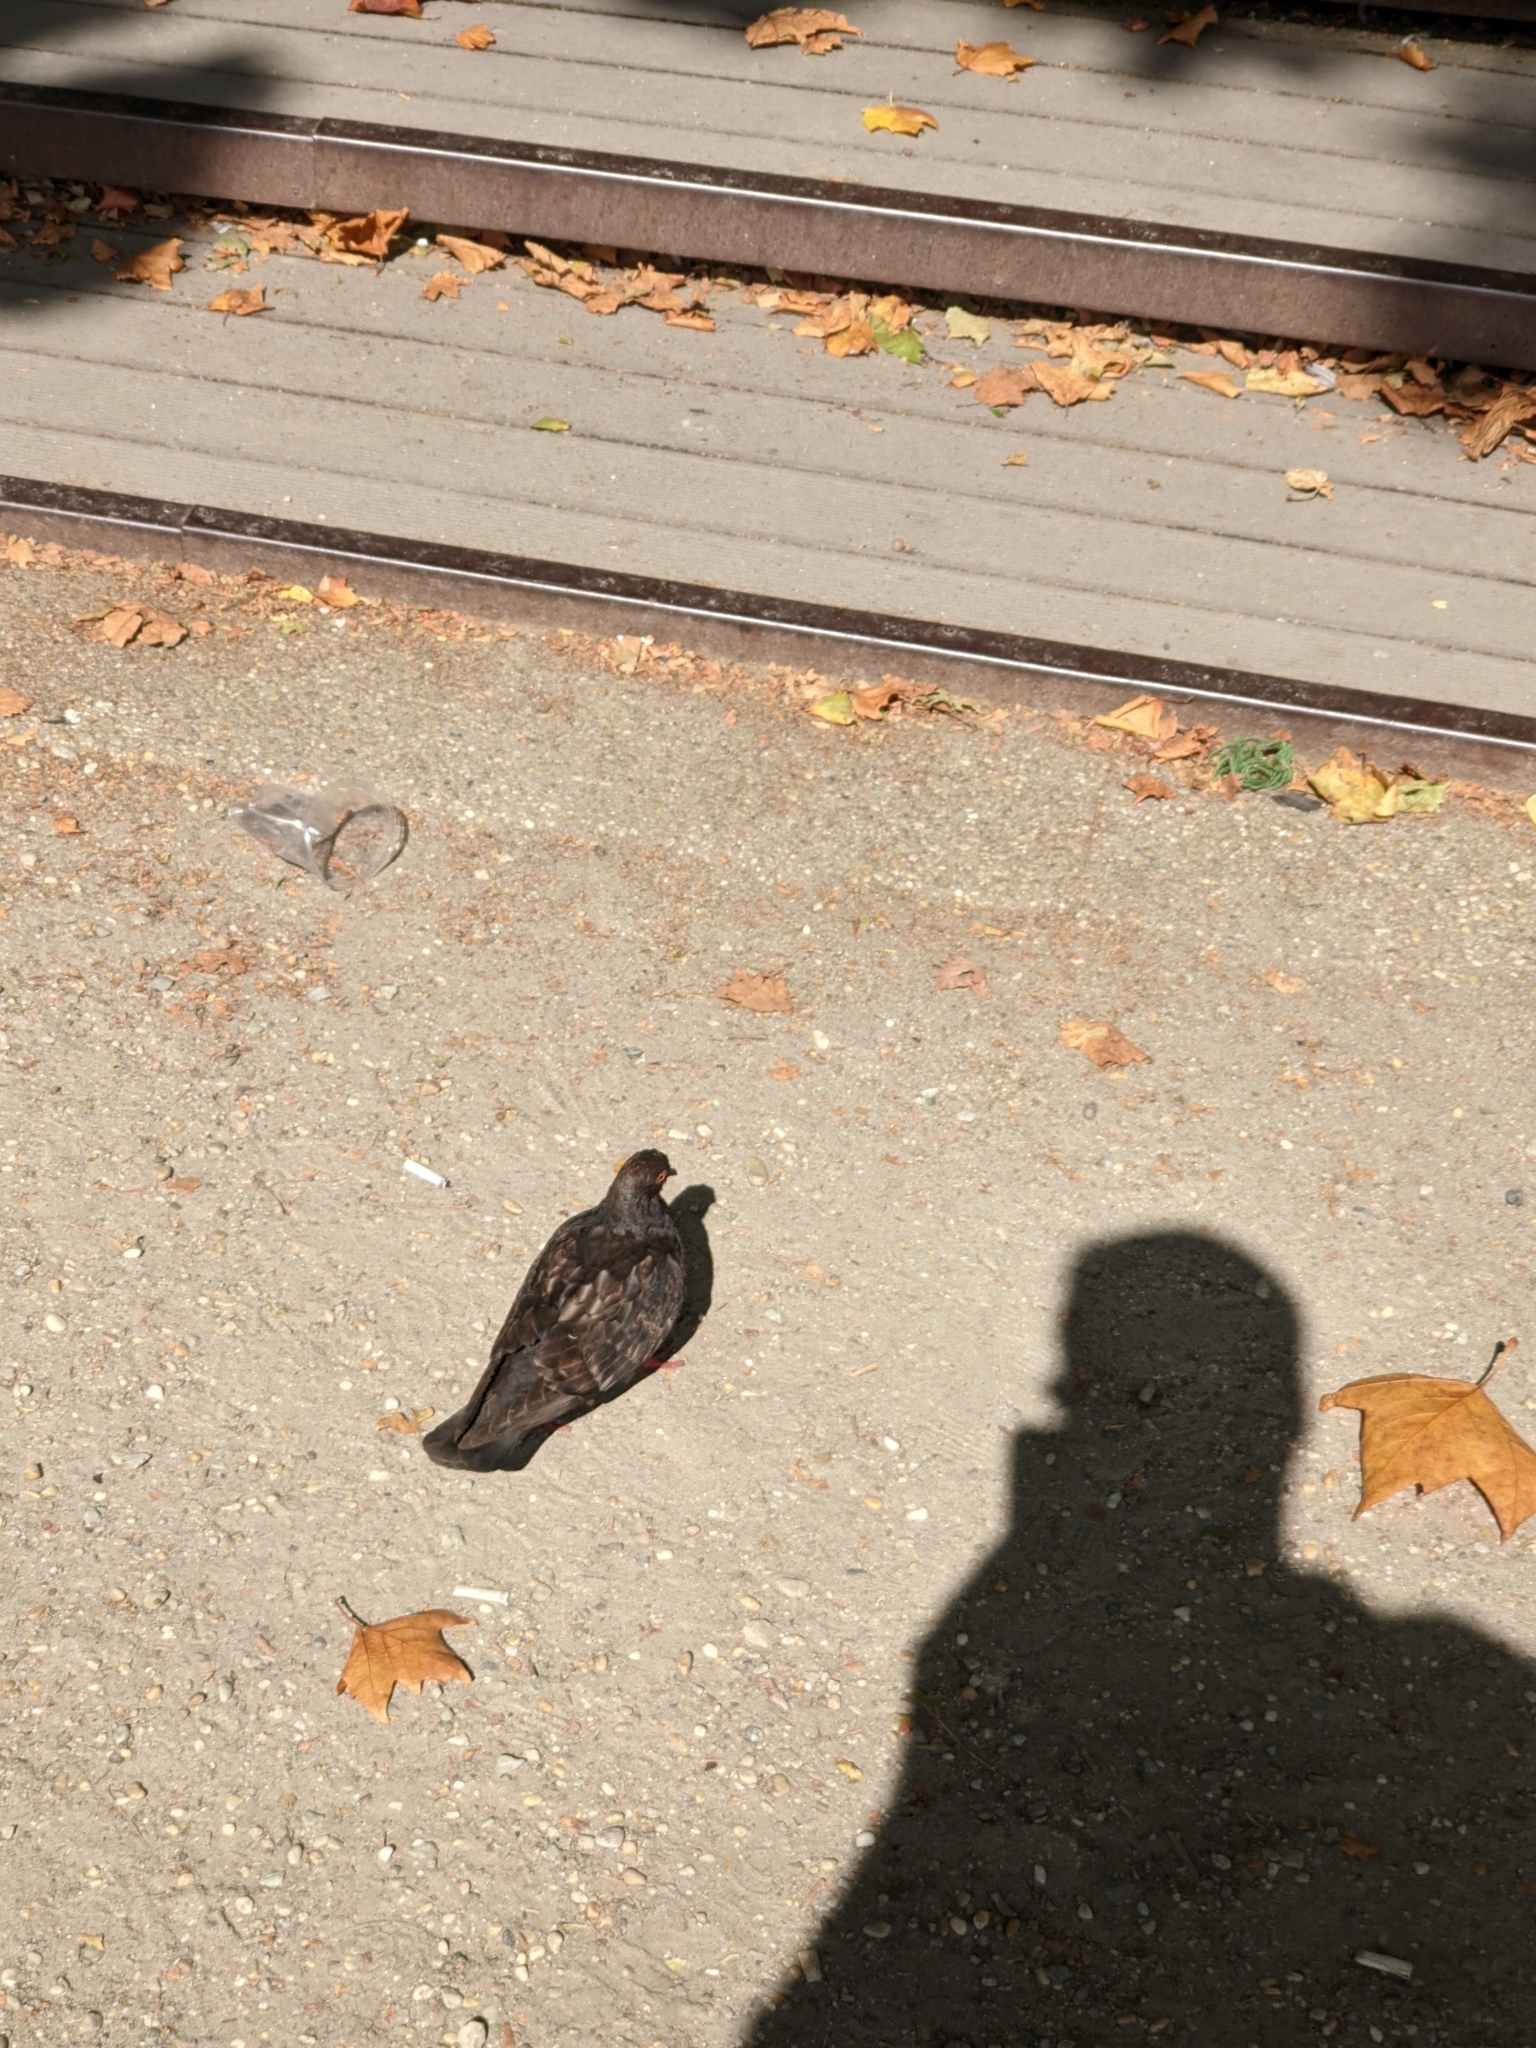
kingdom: Animalia
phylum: Chordata
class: Aves
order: Columbiformes
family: Columbidae
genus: Columba
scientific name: Columba livia
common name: Rock pigeon
